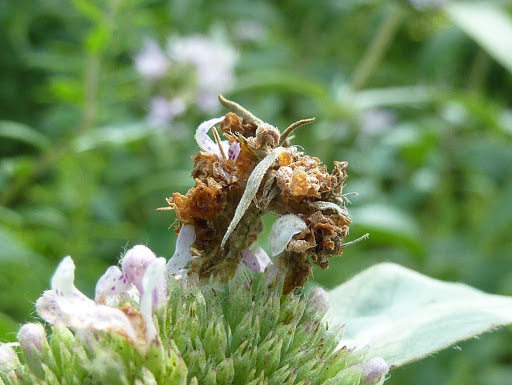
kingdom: Animalia
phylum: Arthropoda
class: Insecta
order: Lepidoptera
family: Geometridae
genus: Synchlora
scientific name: Synchlora
